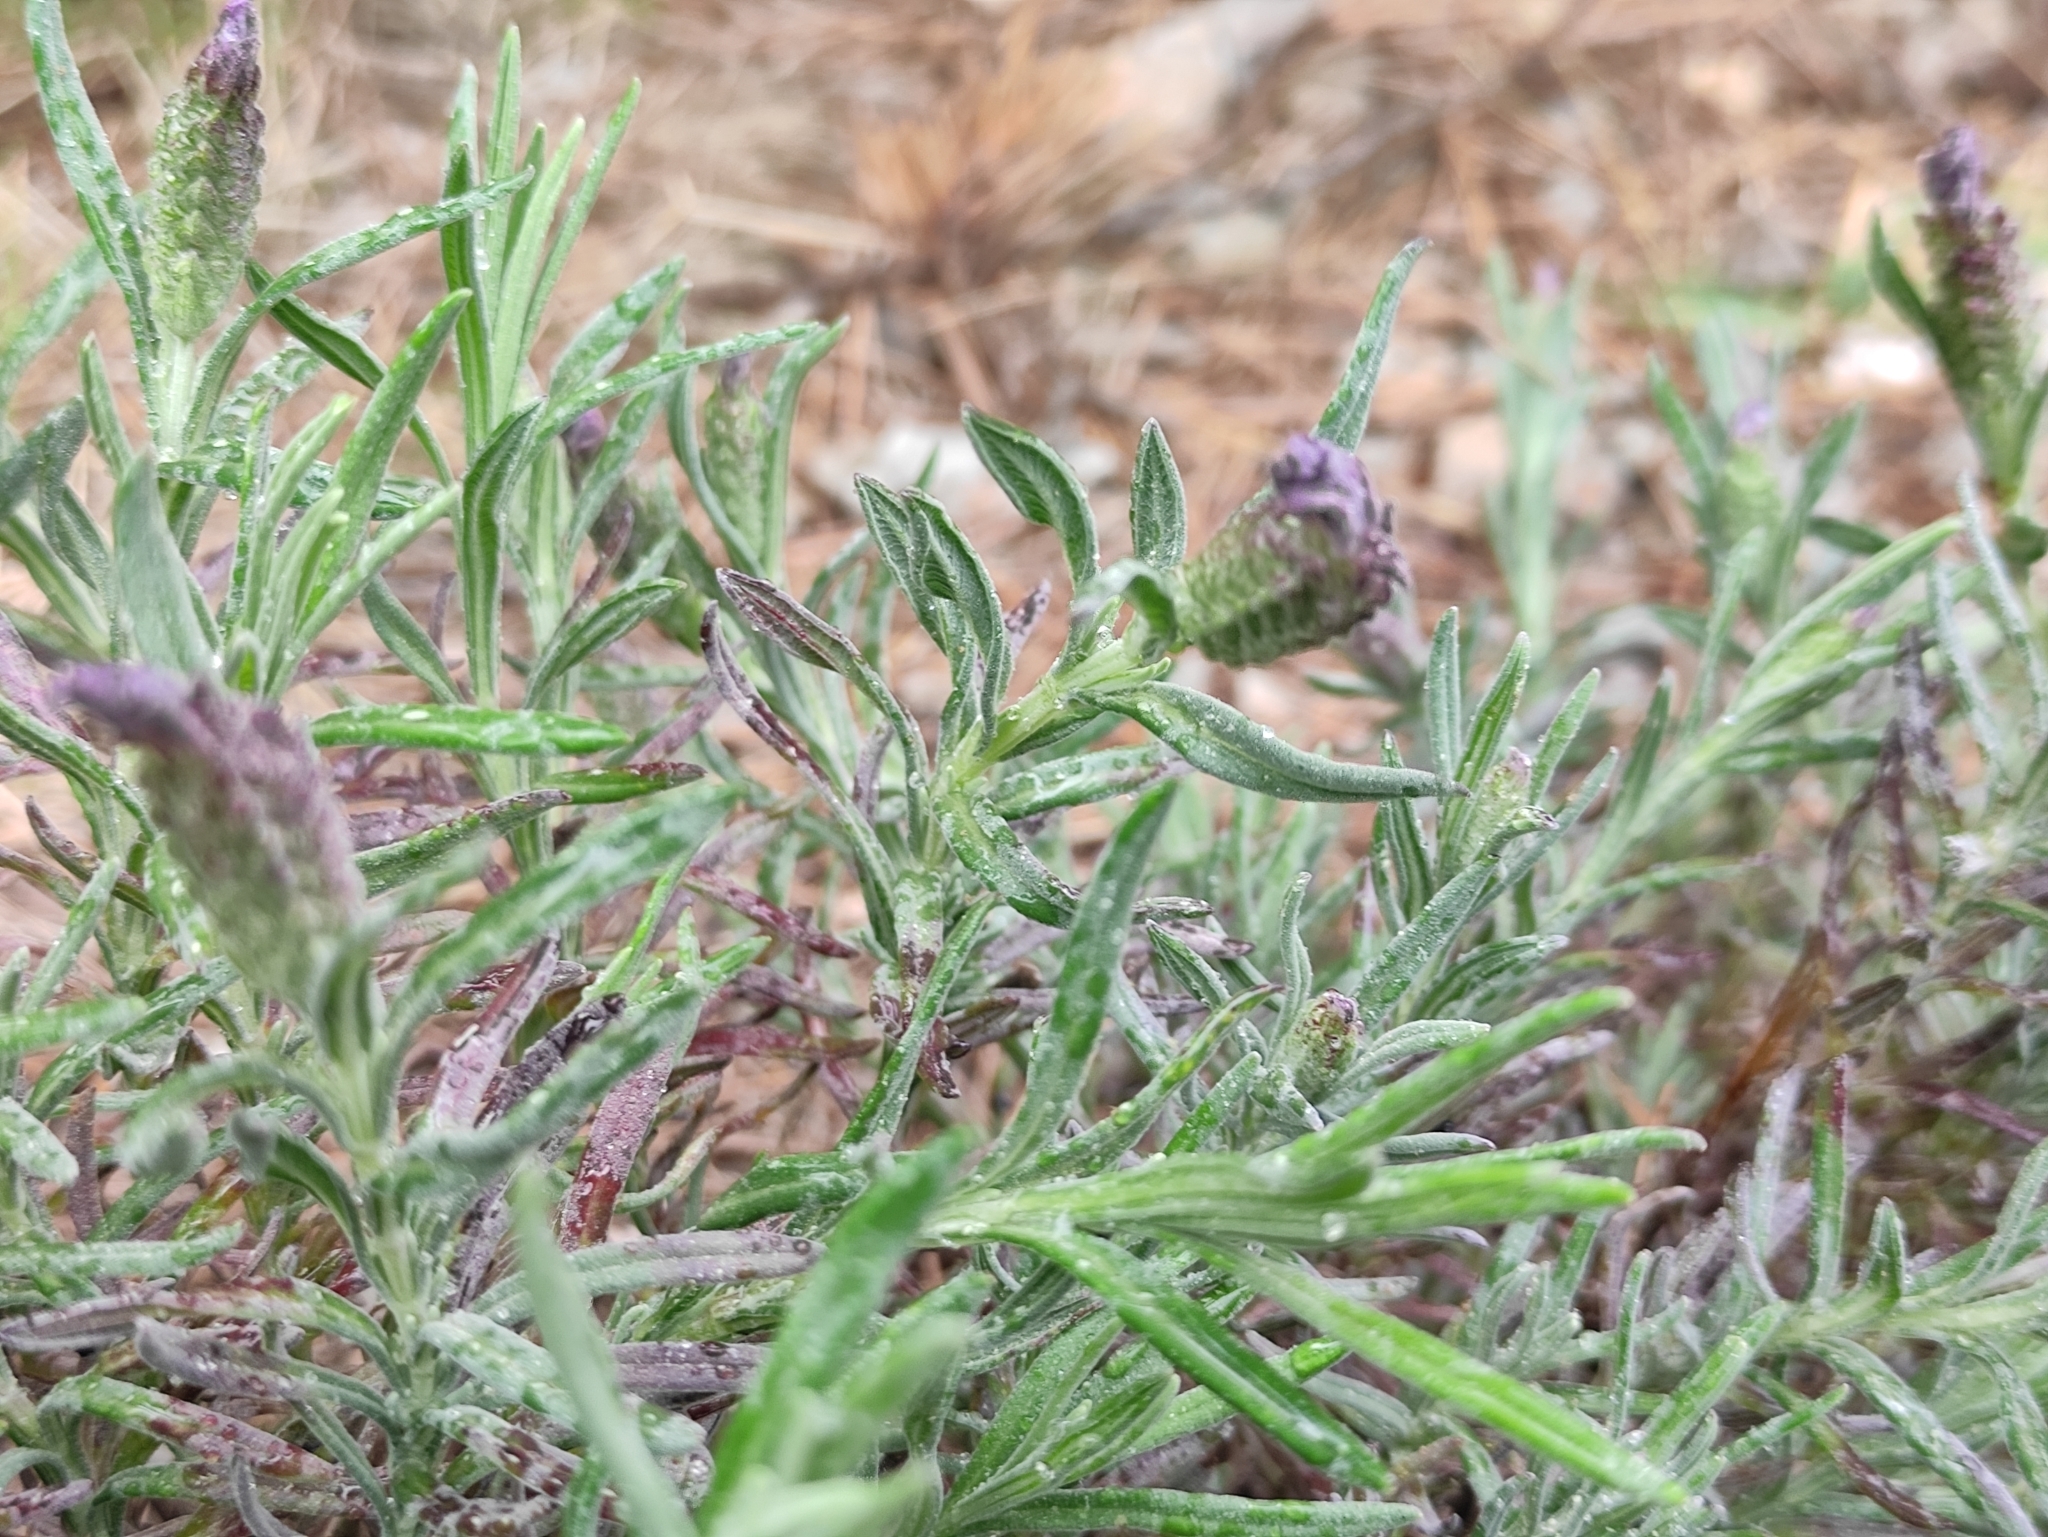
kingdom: Plantae
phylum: Tracheophyta
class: Magnoliopsida
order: Lamiales
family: Lamiaceae
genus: Lavandula
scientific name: Lavandula stoechas
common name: French lavender
